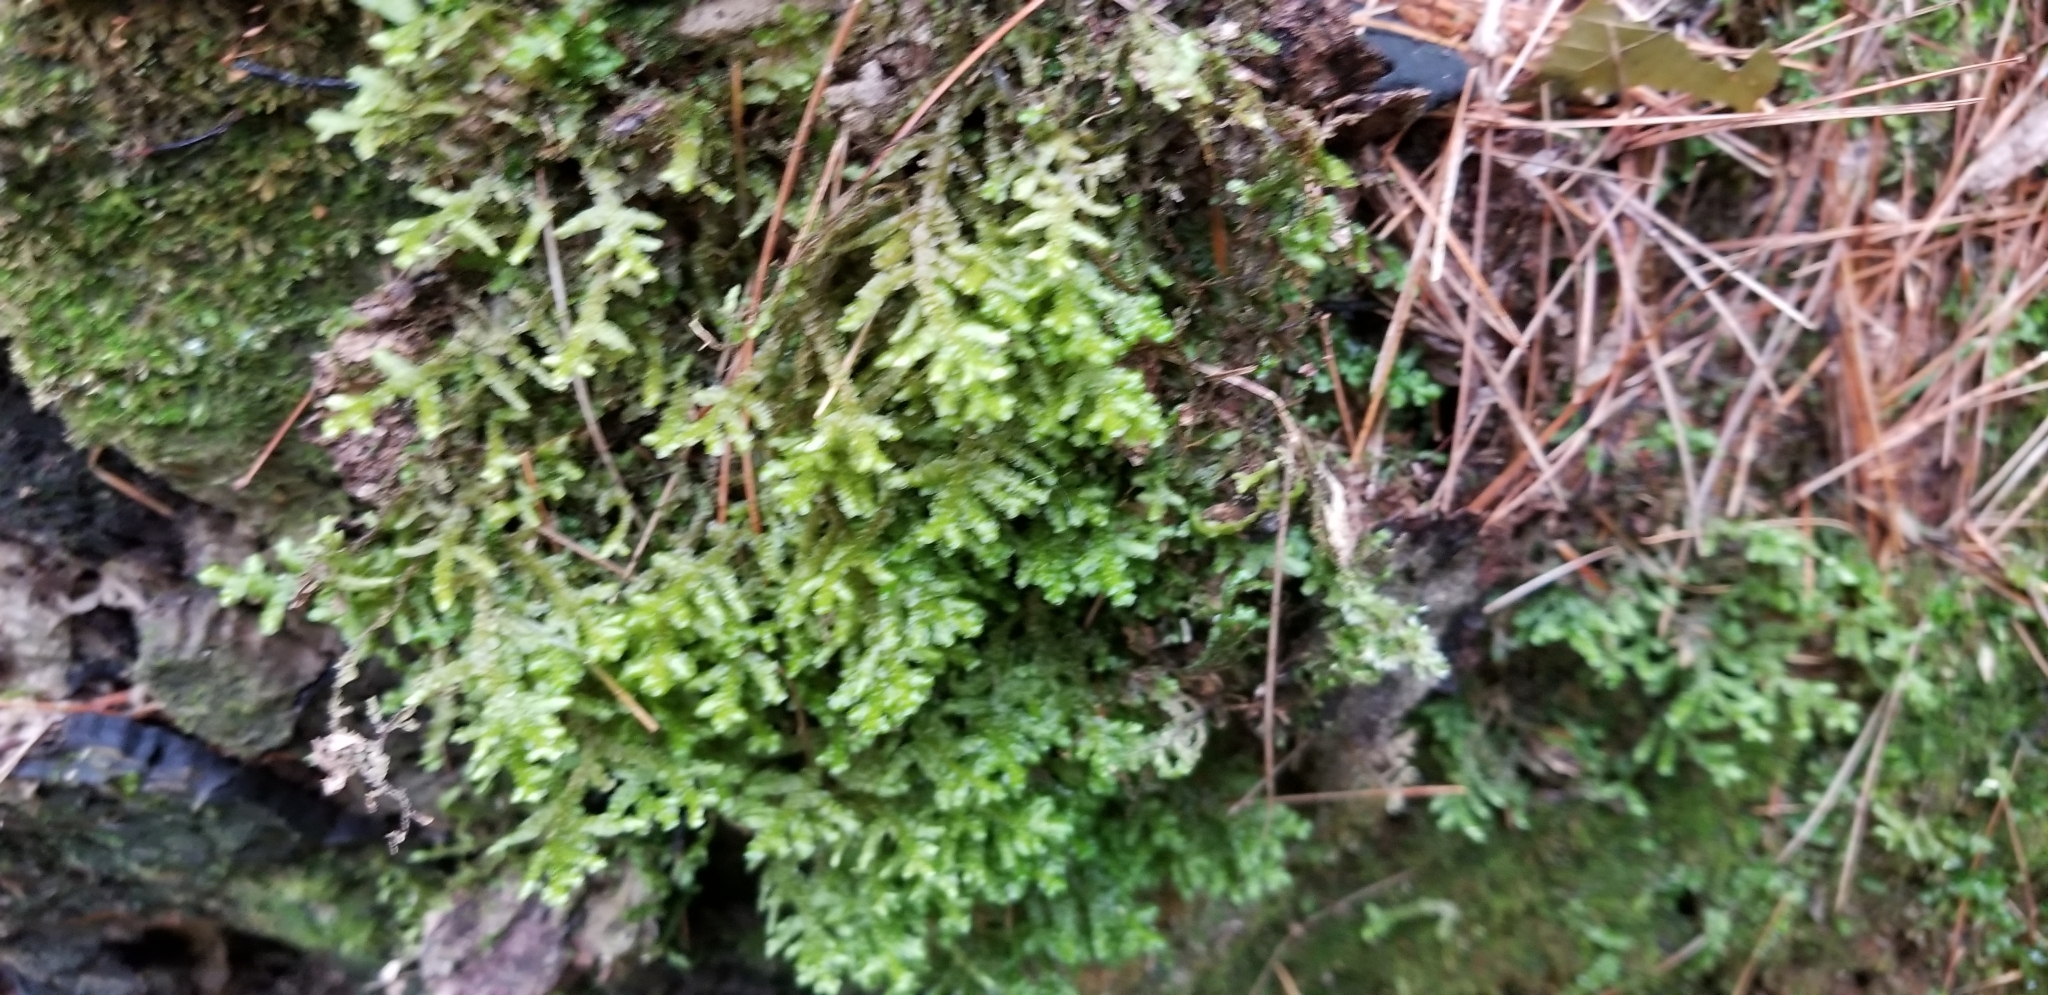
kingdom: Plantae
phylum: Bryophyta
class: Bryopsida
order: Hypnales
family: Neckeraceae
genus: Neckera
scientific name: Neckera pennata
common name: Feathery neckera
